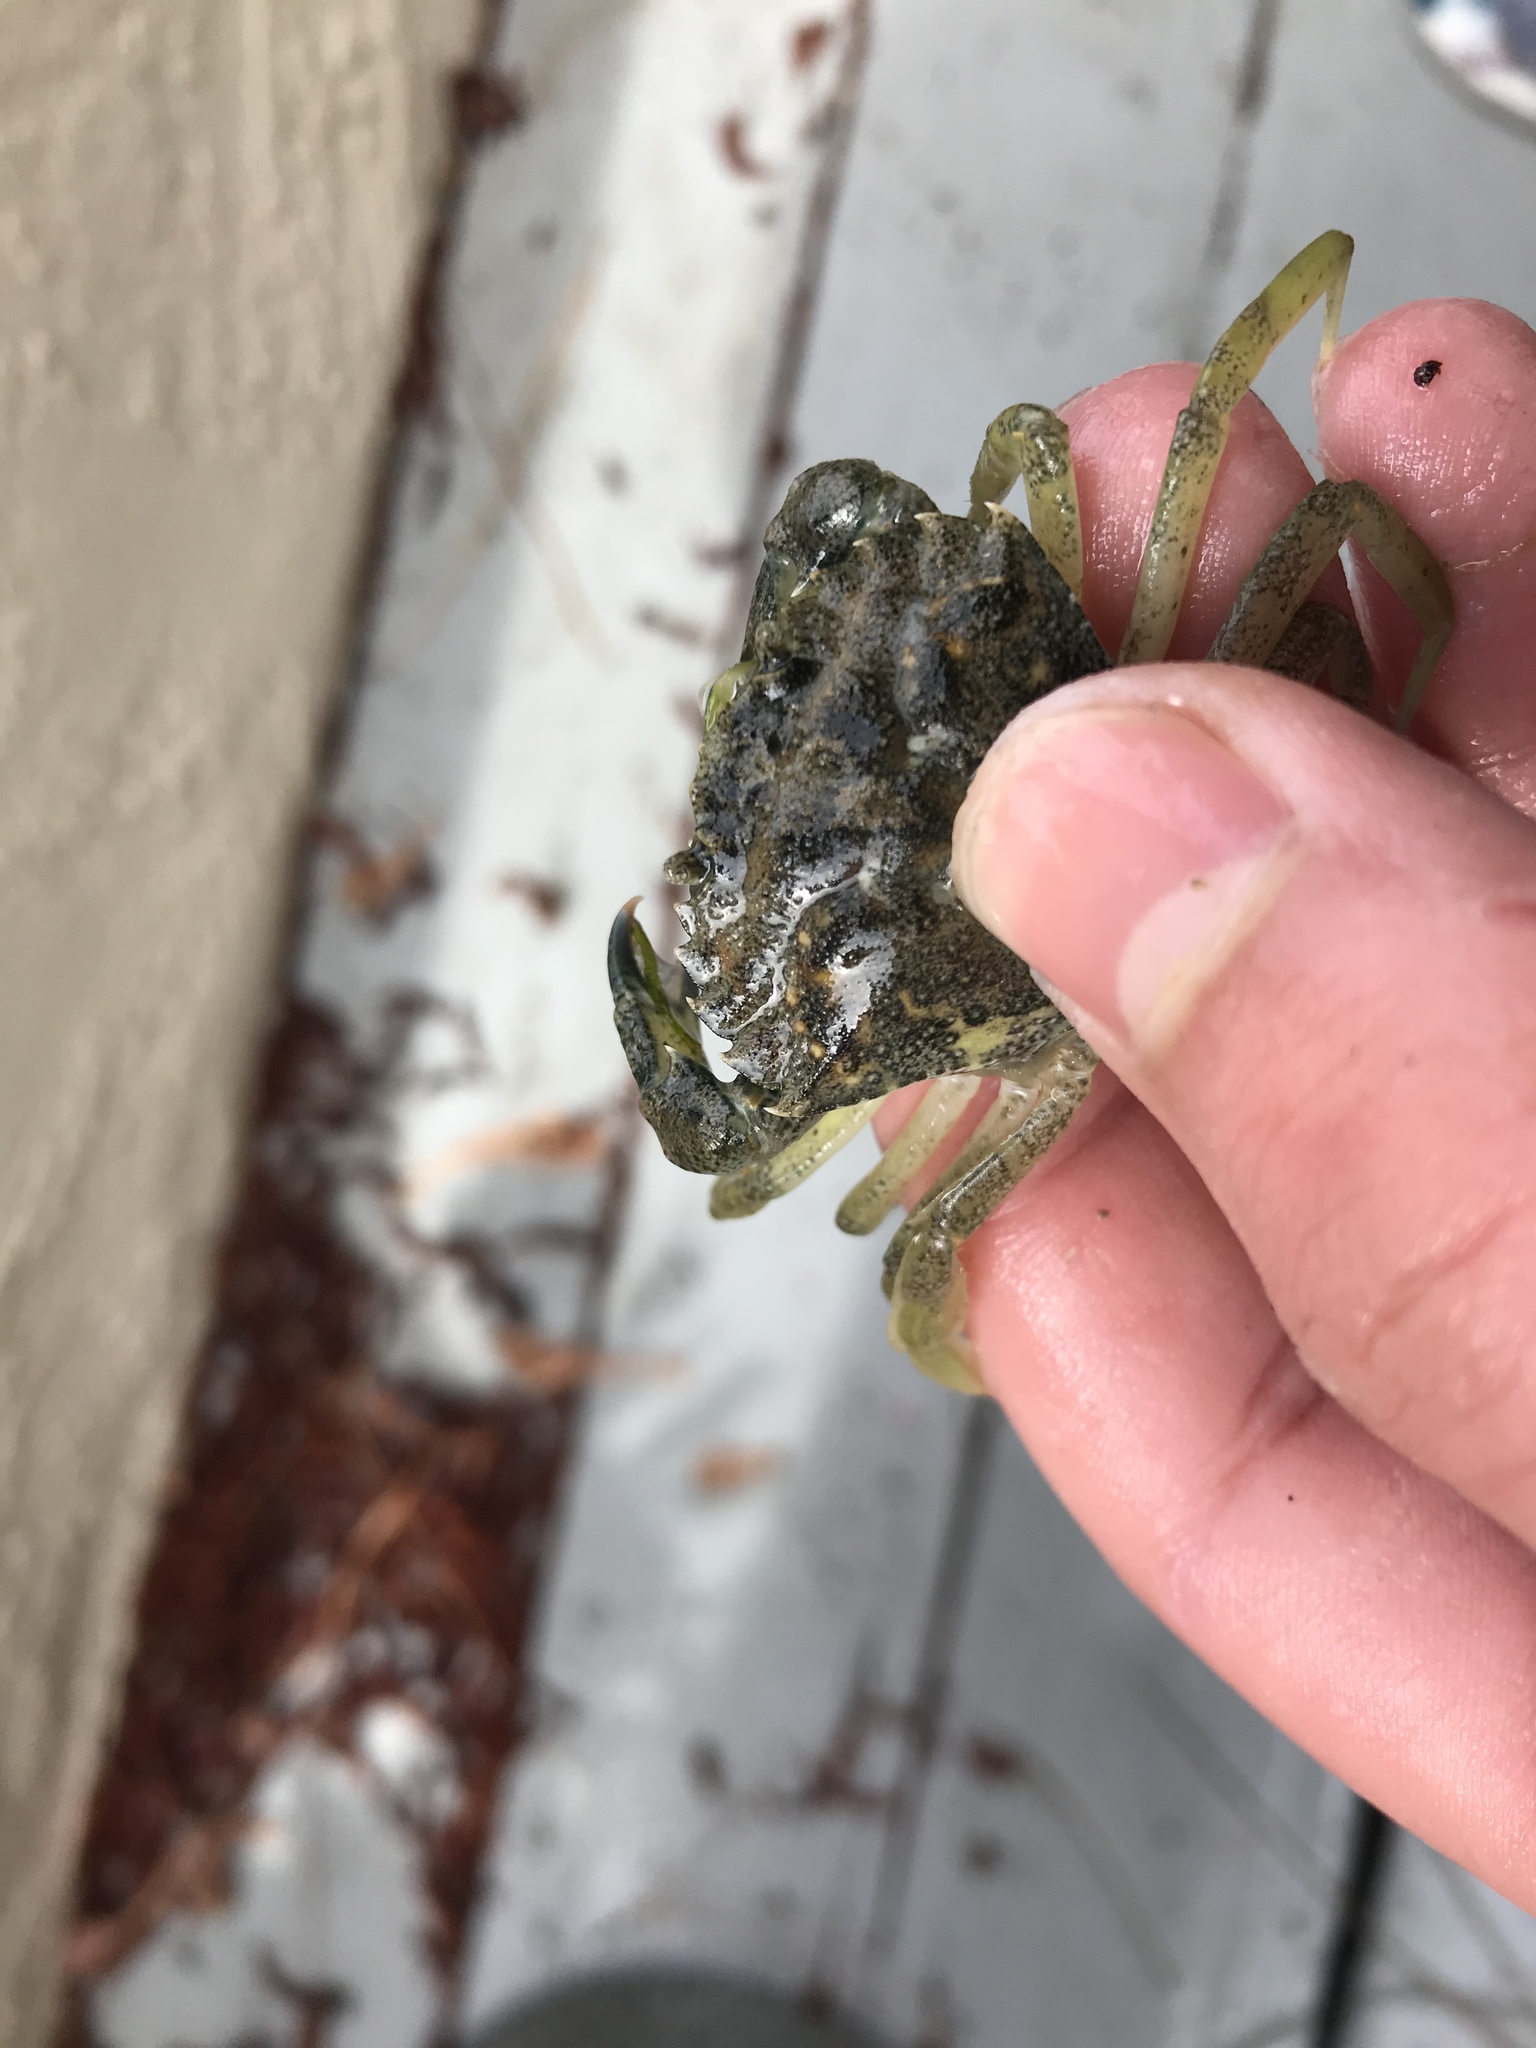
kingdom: Animalia
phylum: Arthropoda
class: Malacostraca
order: Decapoda
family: Carcinidae
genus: Carcinus
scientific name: Carcinus maenas
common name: European green crab
